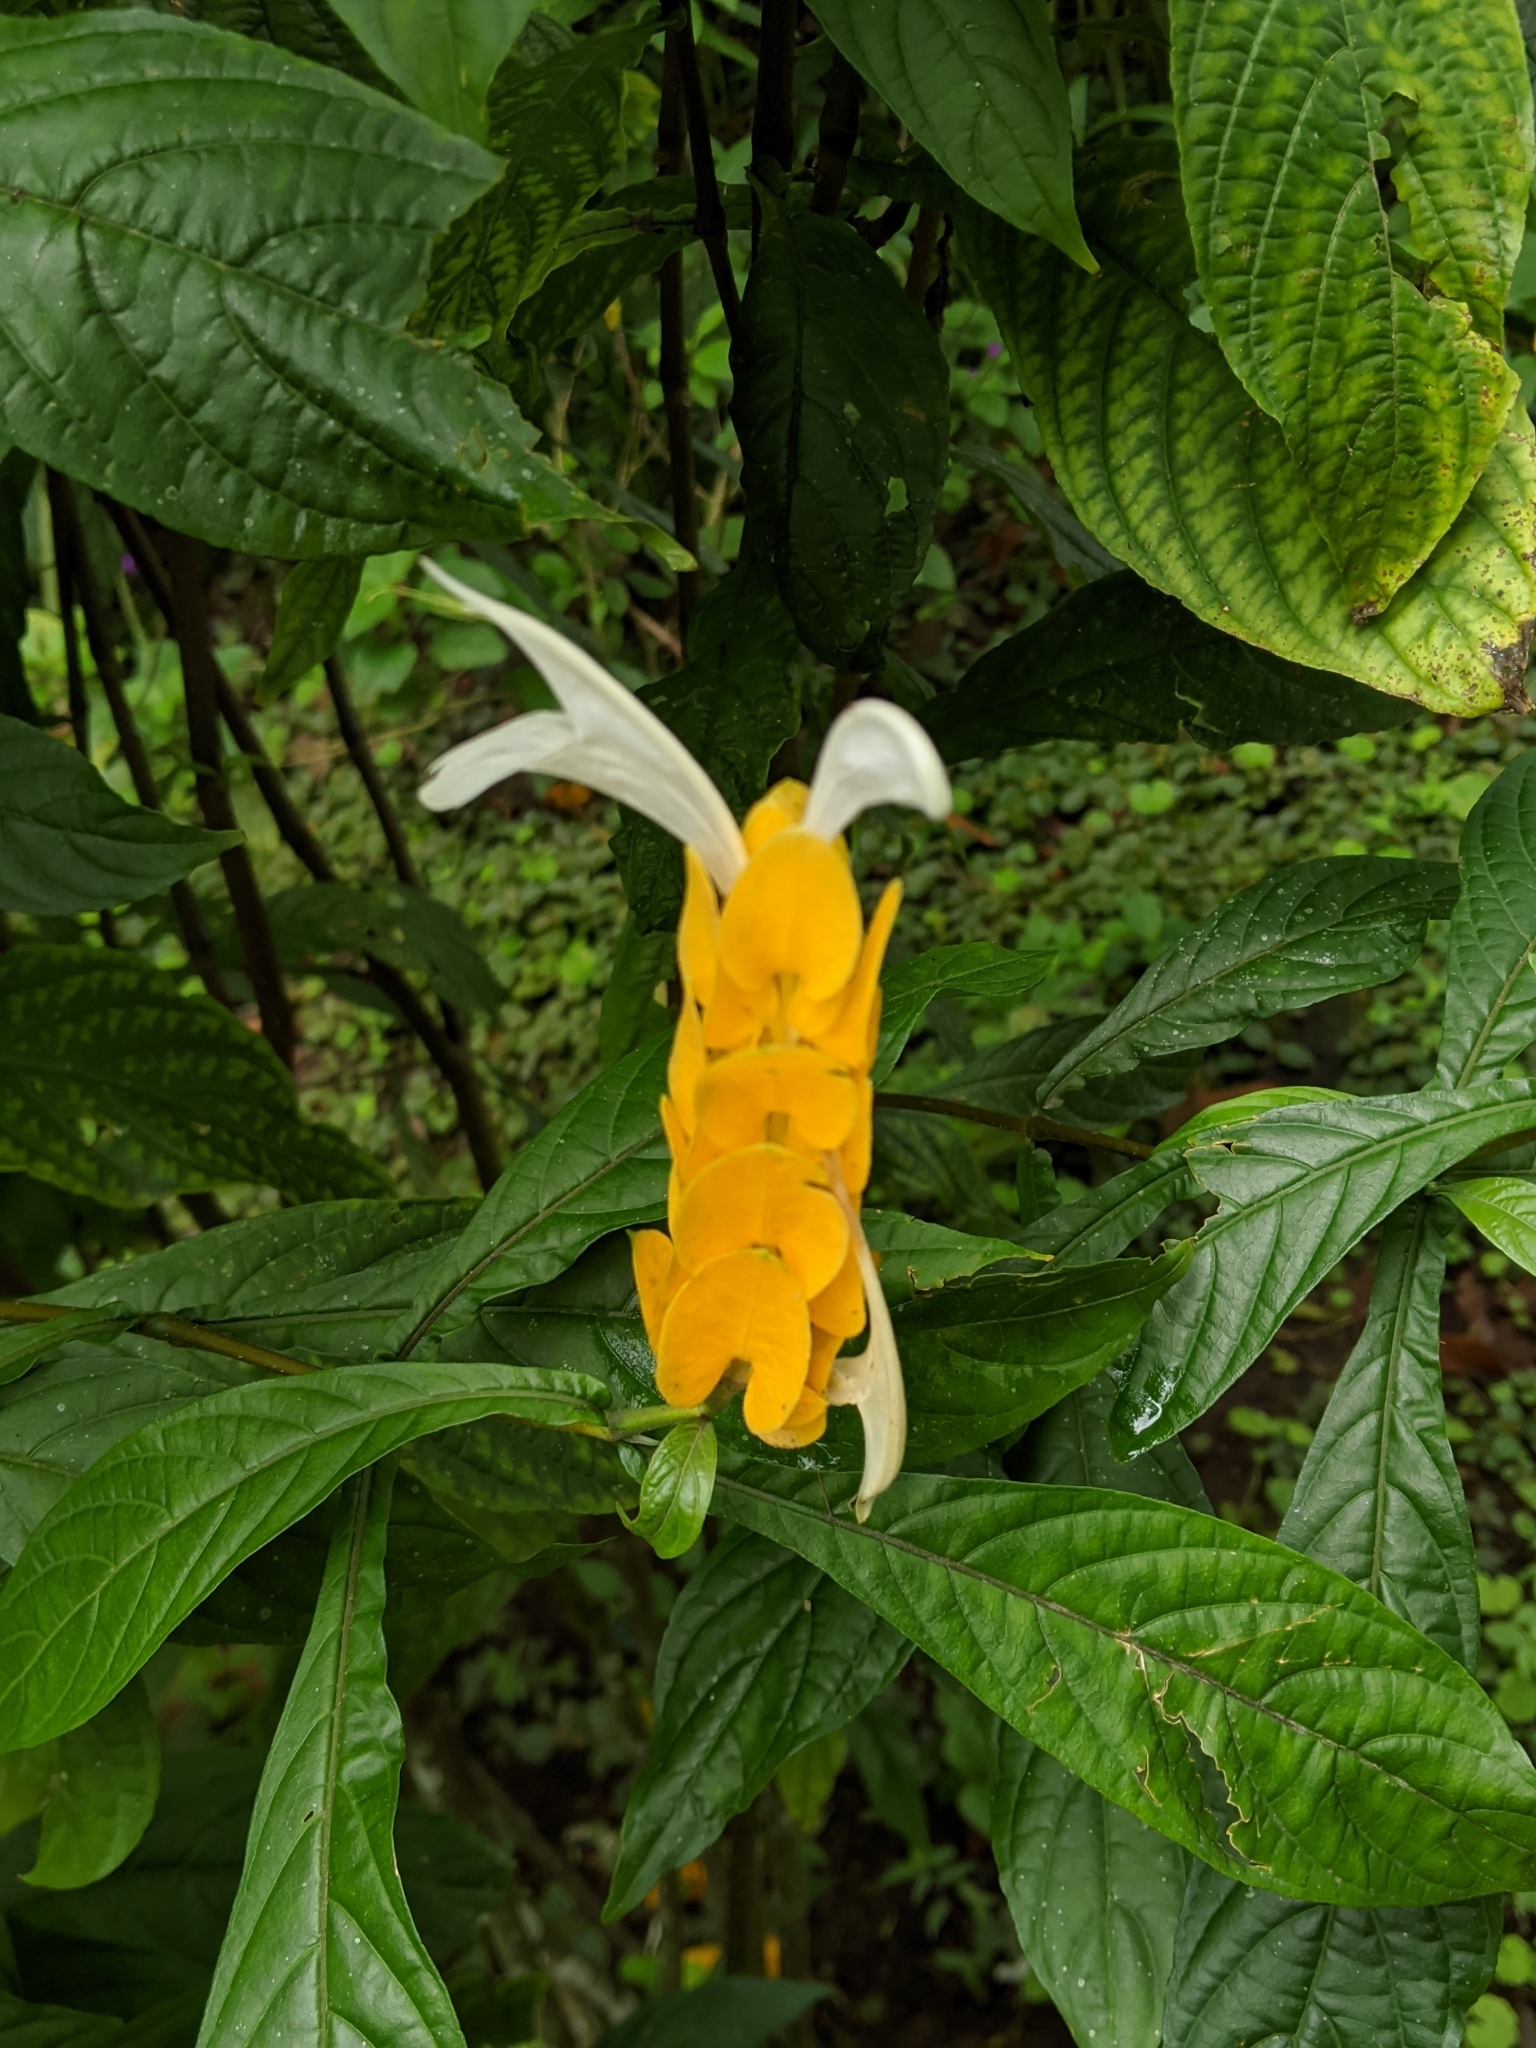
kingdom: Plantae
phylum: Tracheophyta
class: Magnoliopsida
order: Lamiales
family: Acanthaceae
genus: Pachystachys
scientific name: Pachystachys lutea
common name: Golden shrimp-plant
